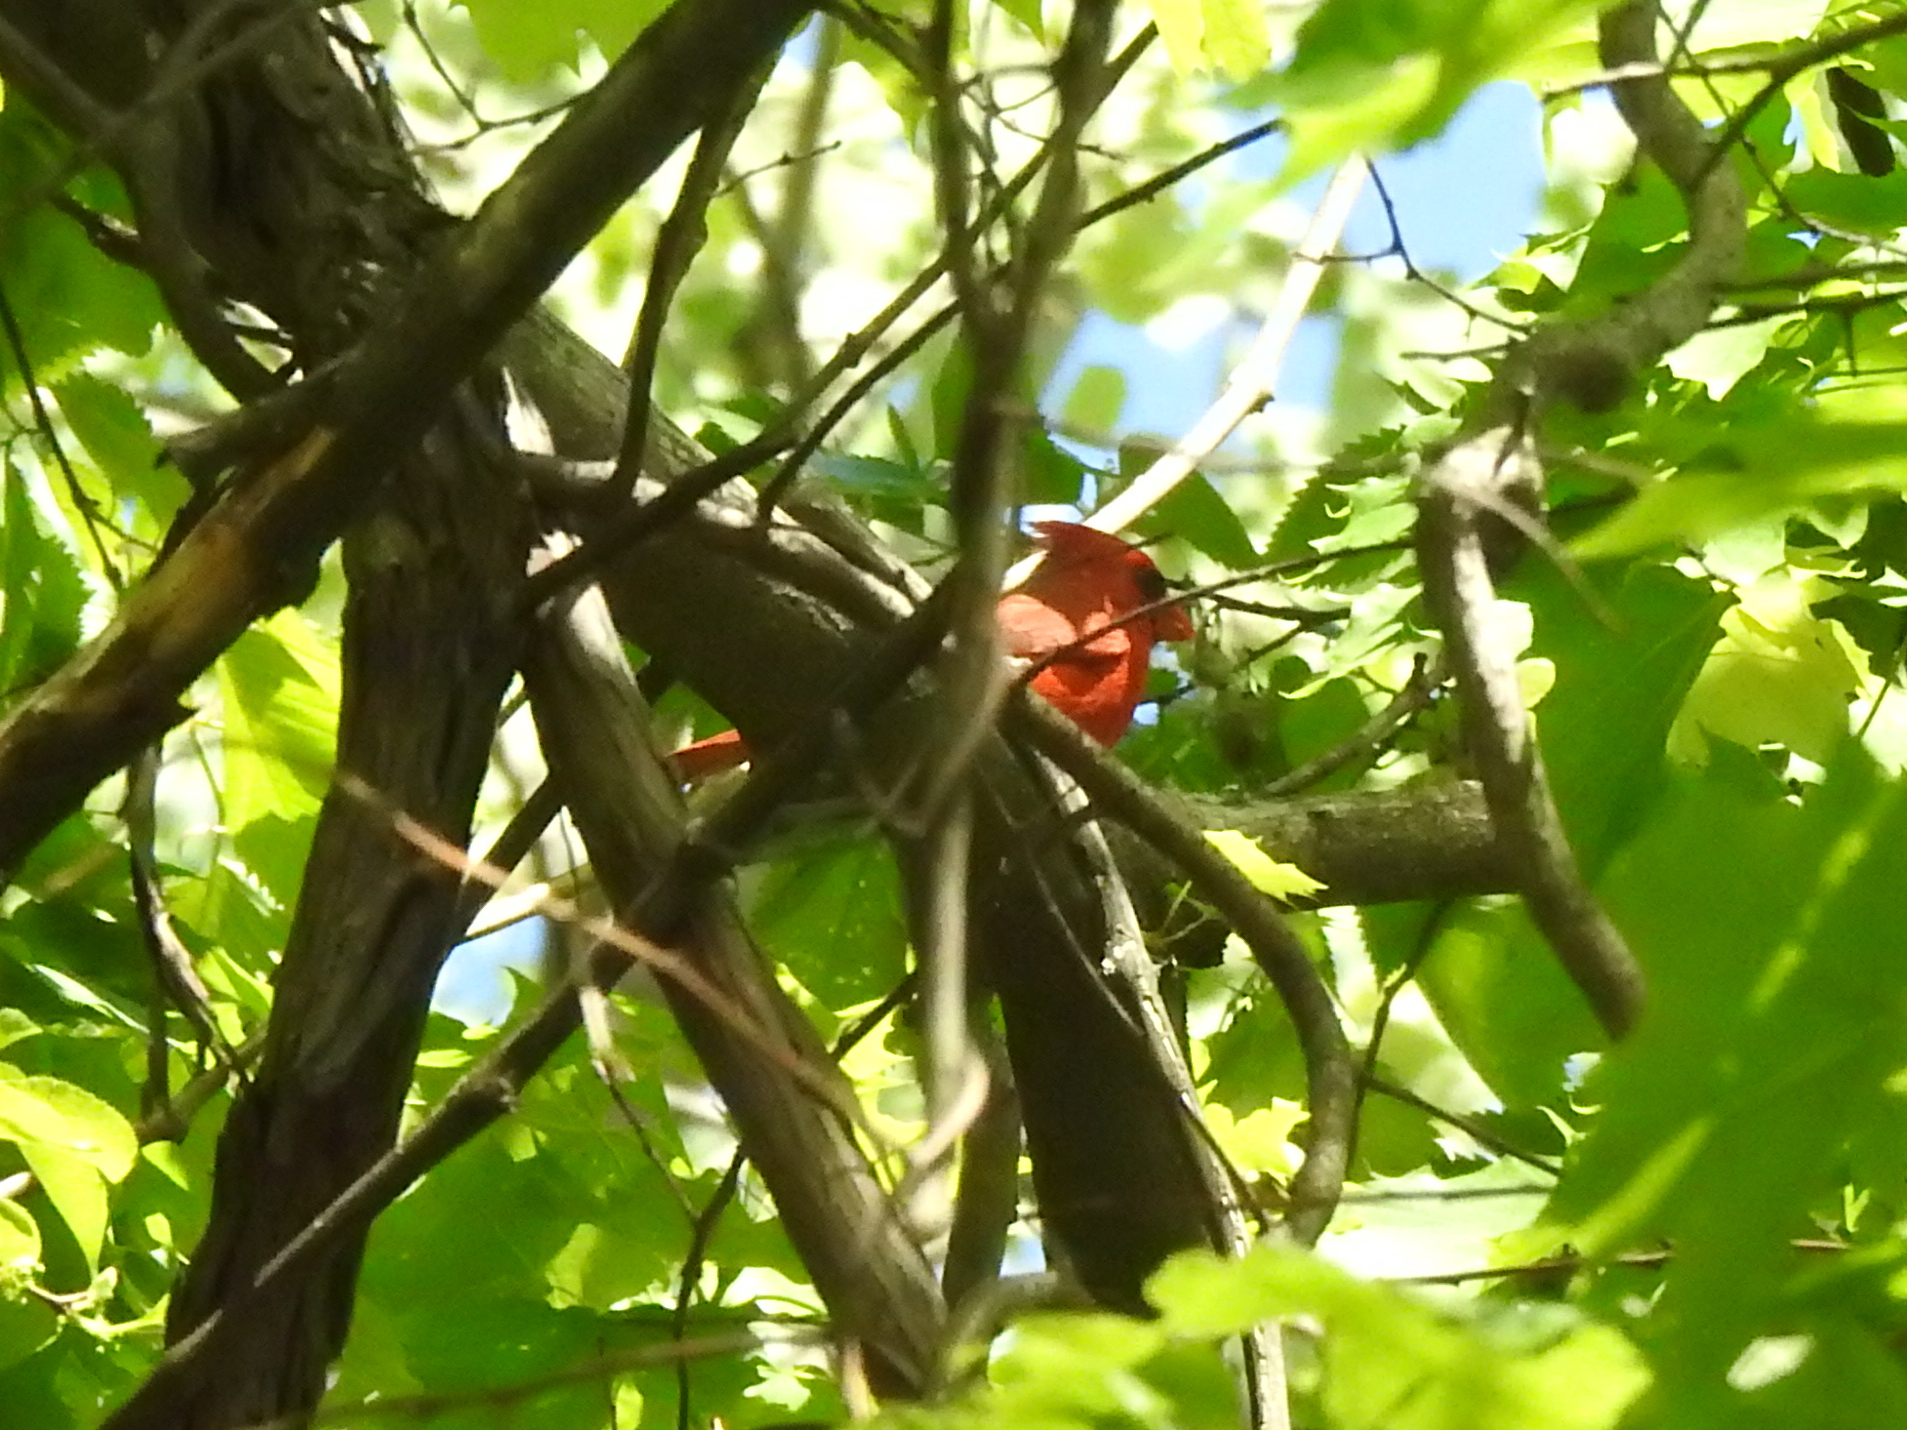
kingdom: Animalia
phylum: Chordata
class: Aves
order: Passeriformes
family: Cardinalidae
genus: Cardinalis
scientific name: Cardinalis cardinalis
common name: Northern cardinal
